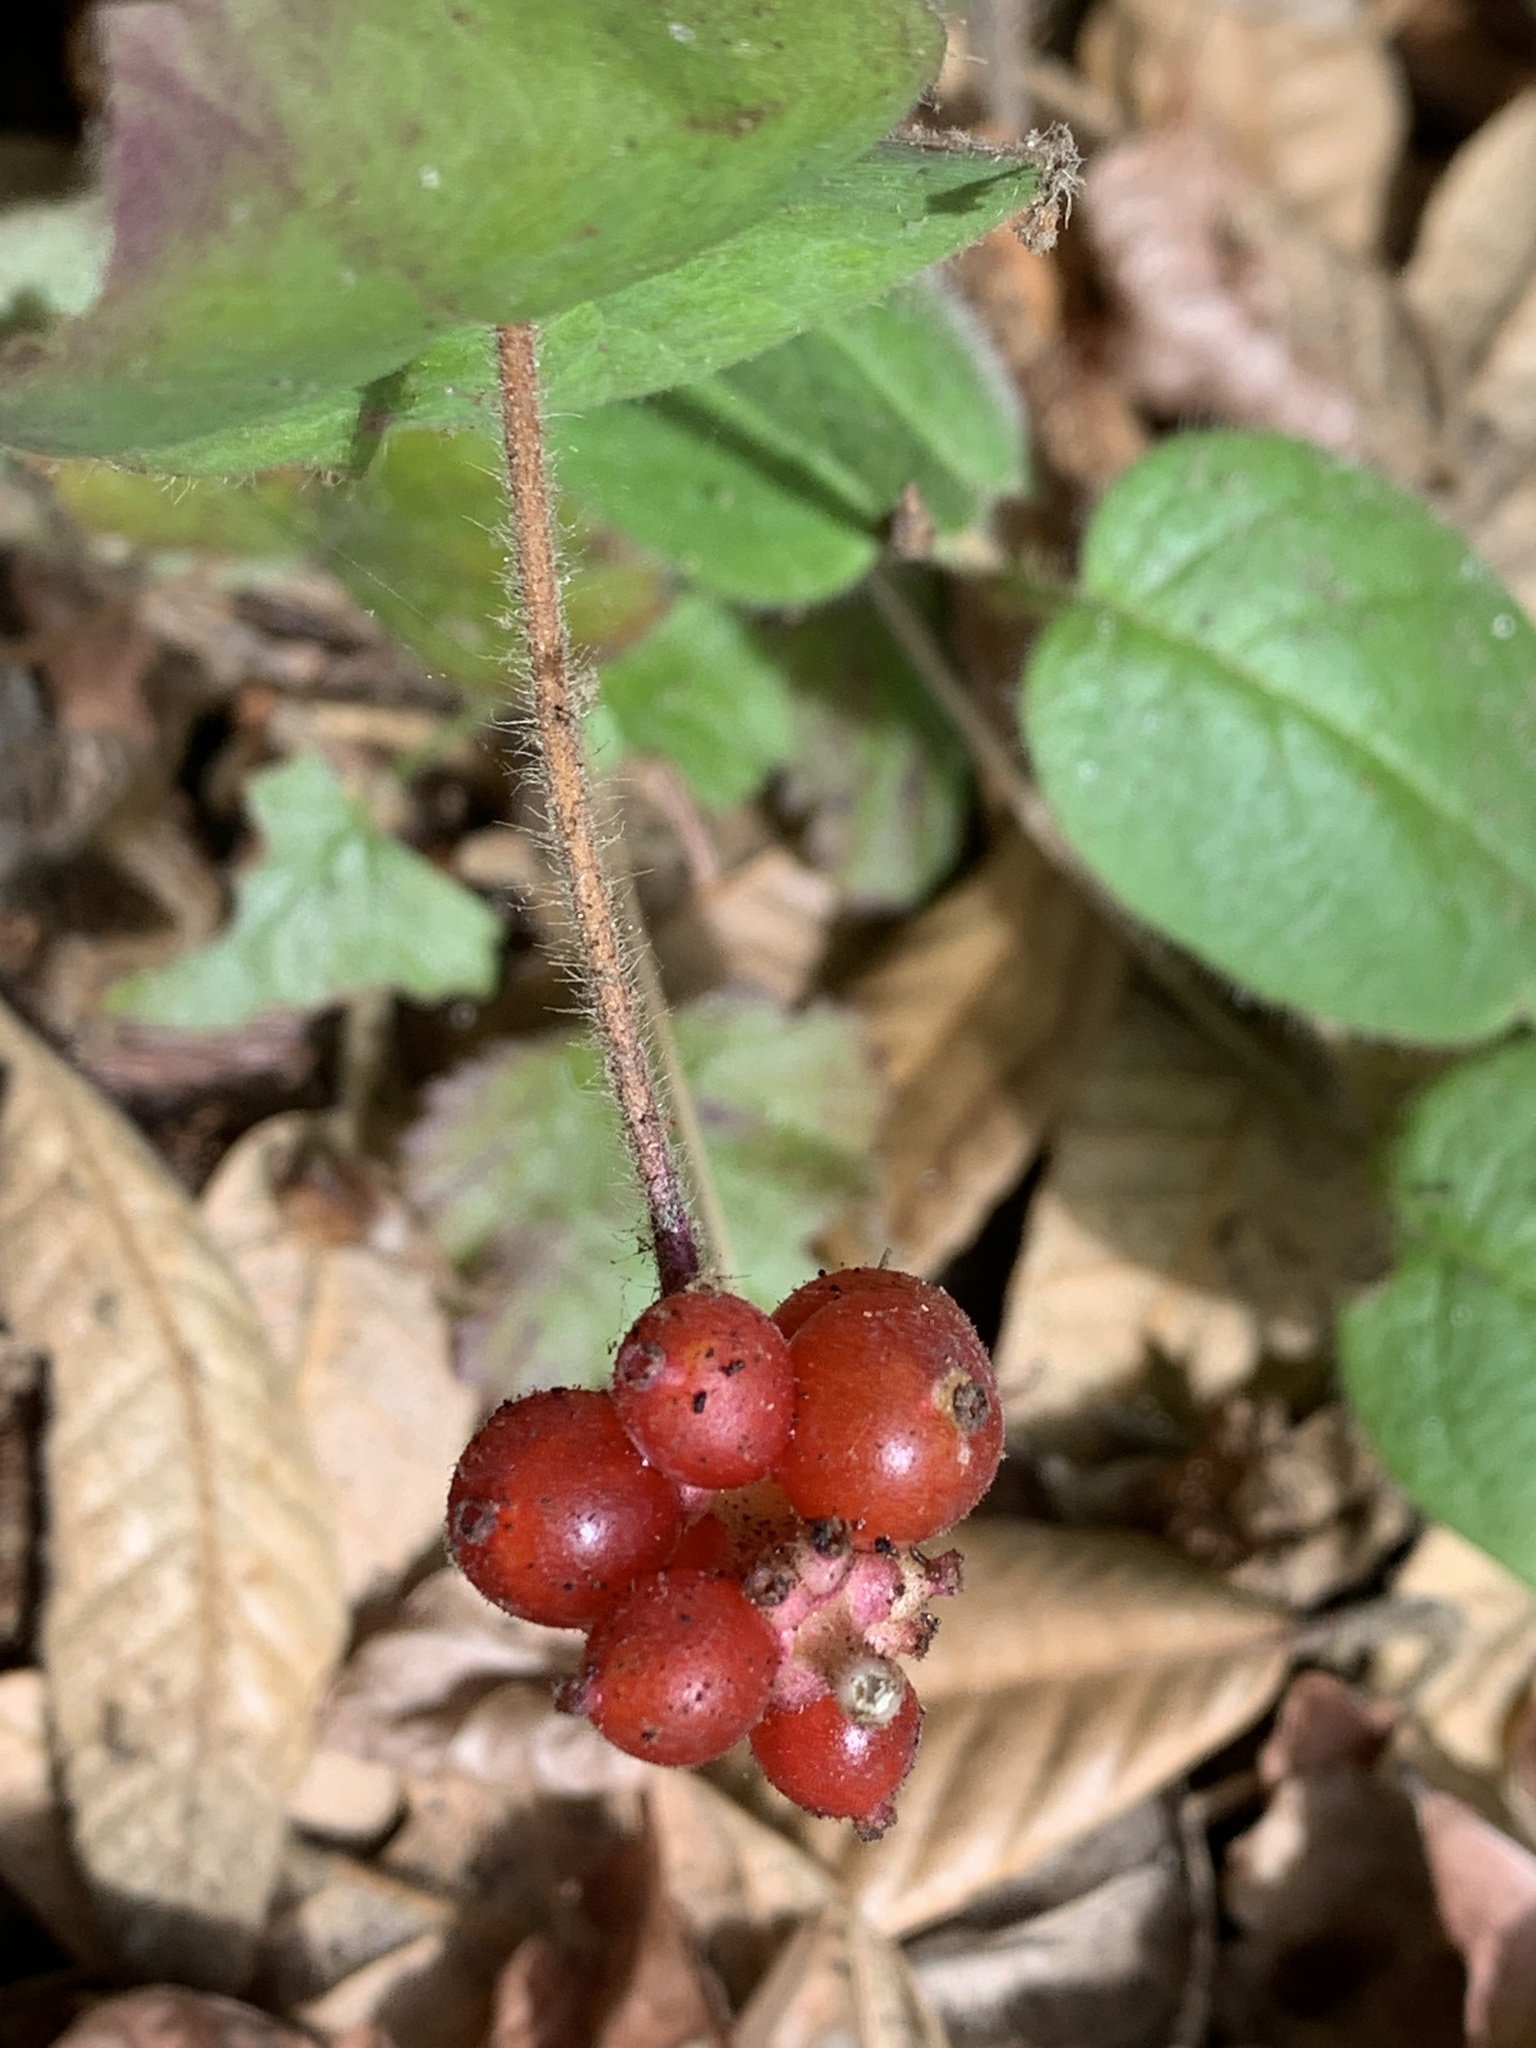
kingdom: Plantae
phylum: Tracheophyta
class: Magnoliopsida
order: Dipsacales
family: Caprifoliaceae
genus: Lonicera
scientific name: Lonicera hispidula
